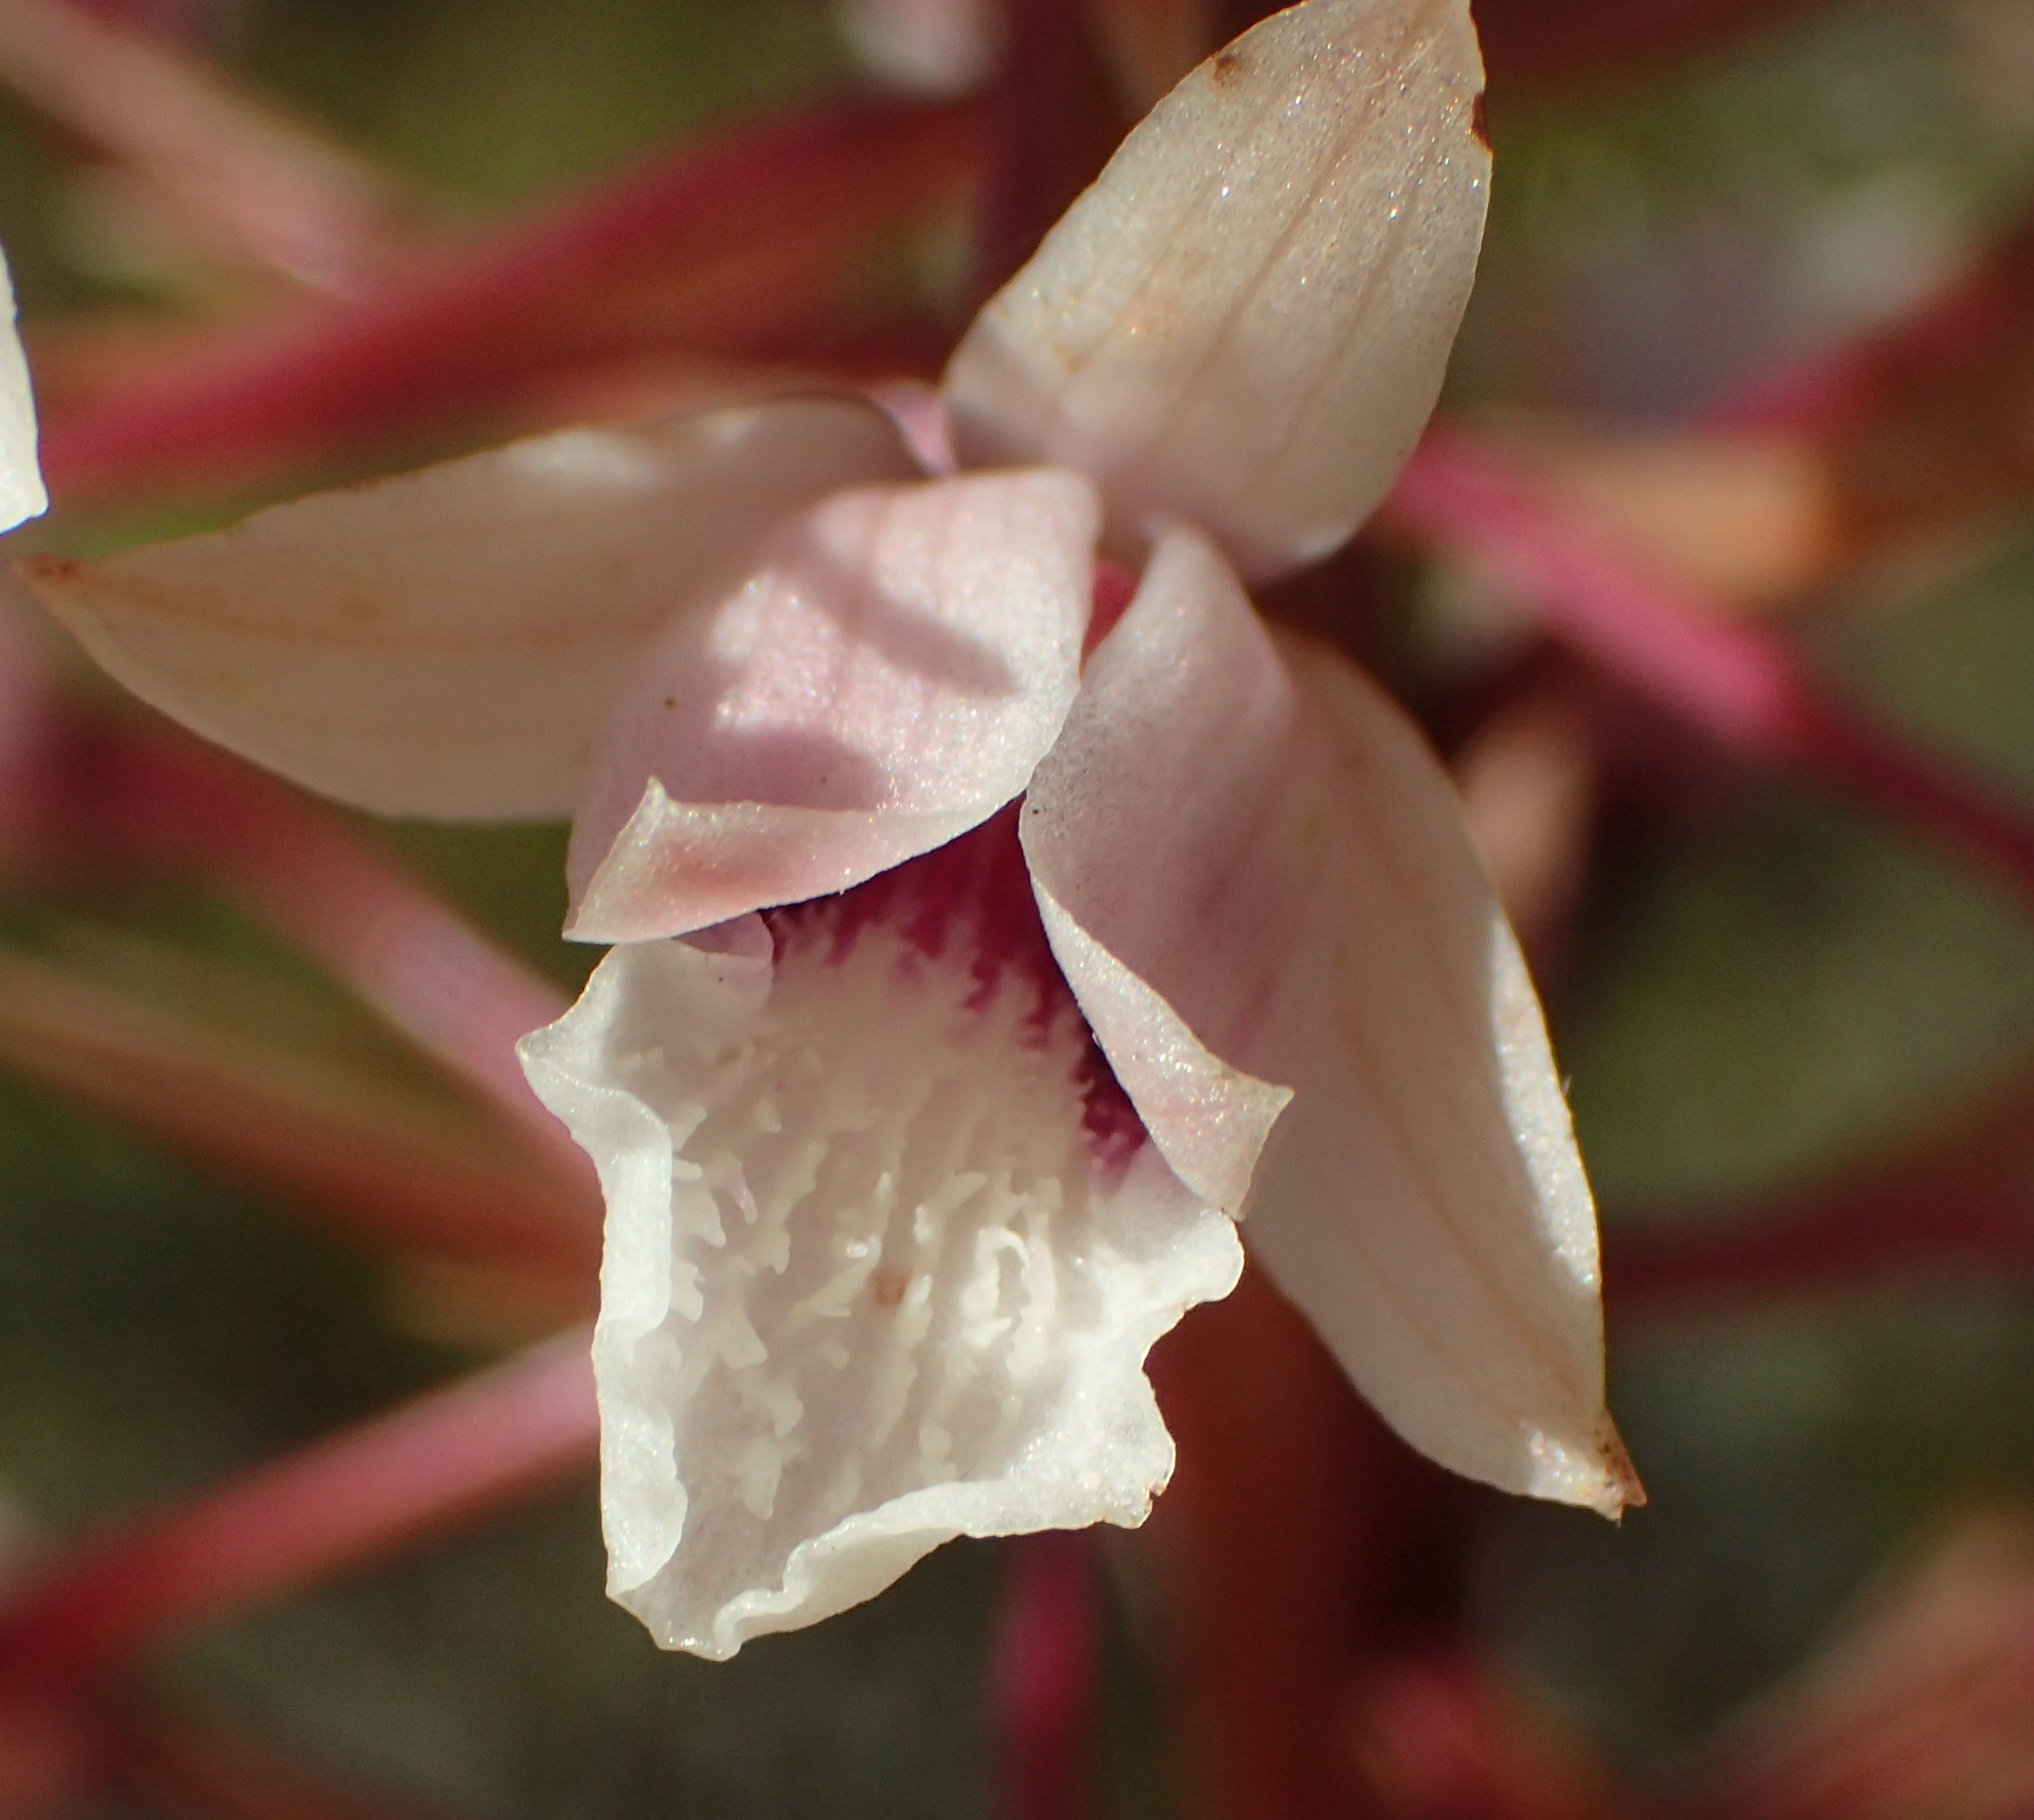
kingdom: Plantae
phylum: Tracheophyta
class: Liliopsida
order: Asparagales
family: Orchidaceae
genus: Eulophia
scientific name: Eulophia barbata
